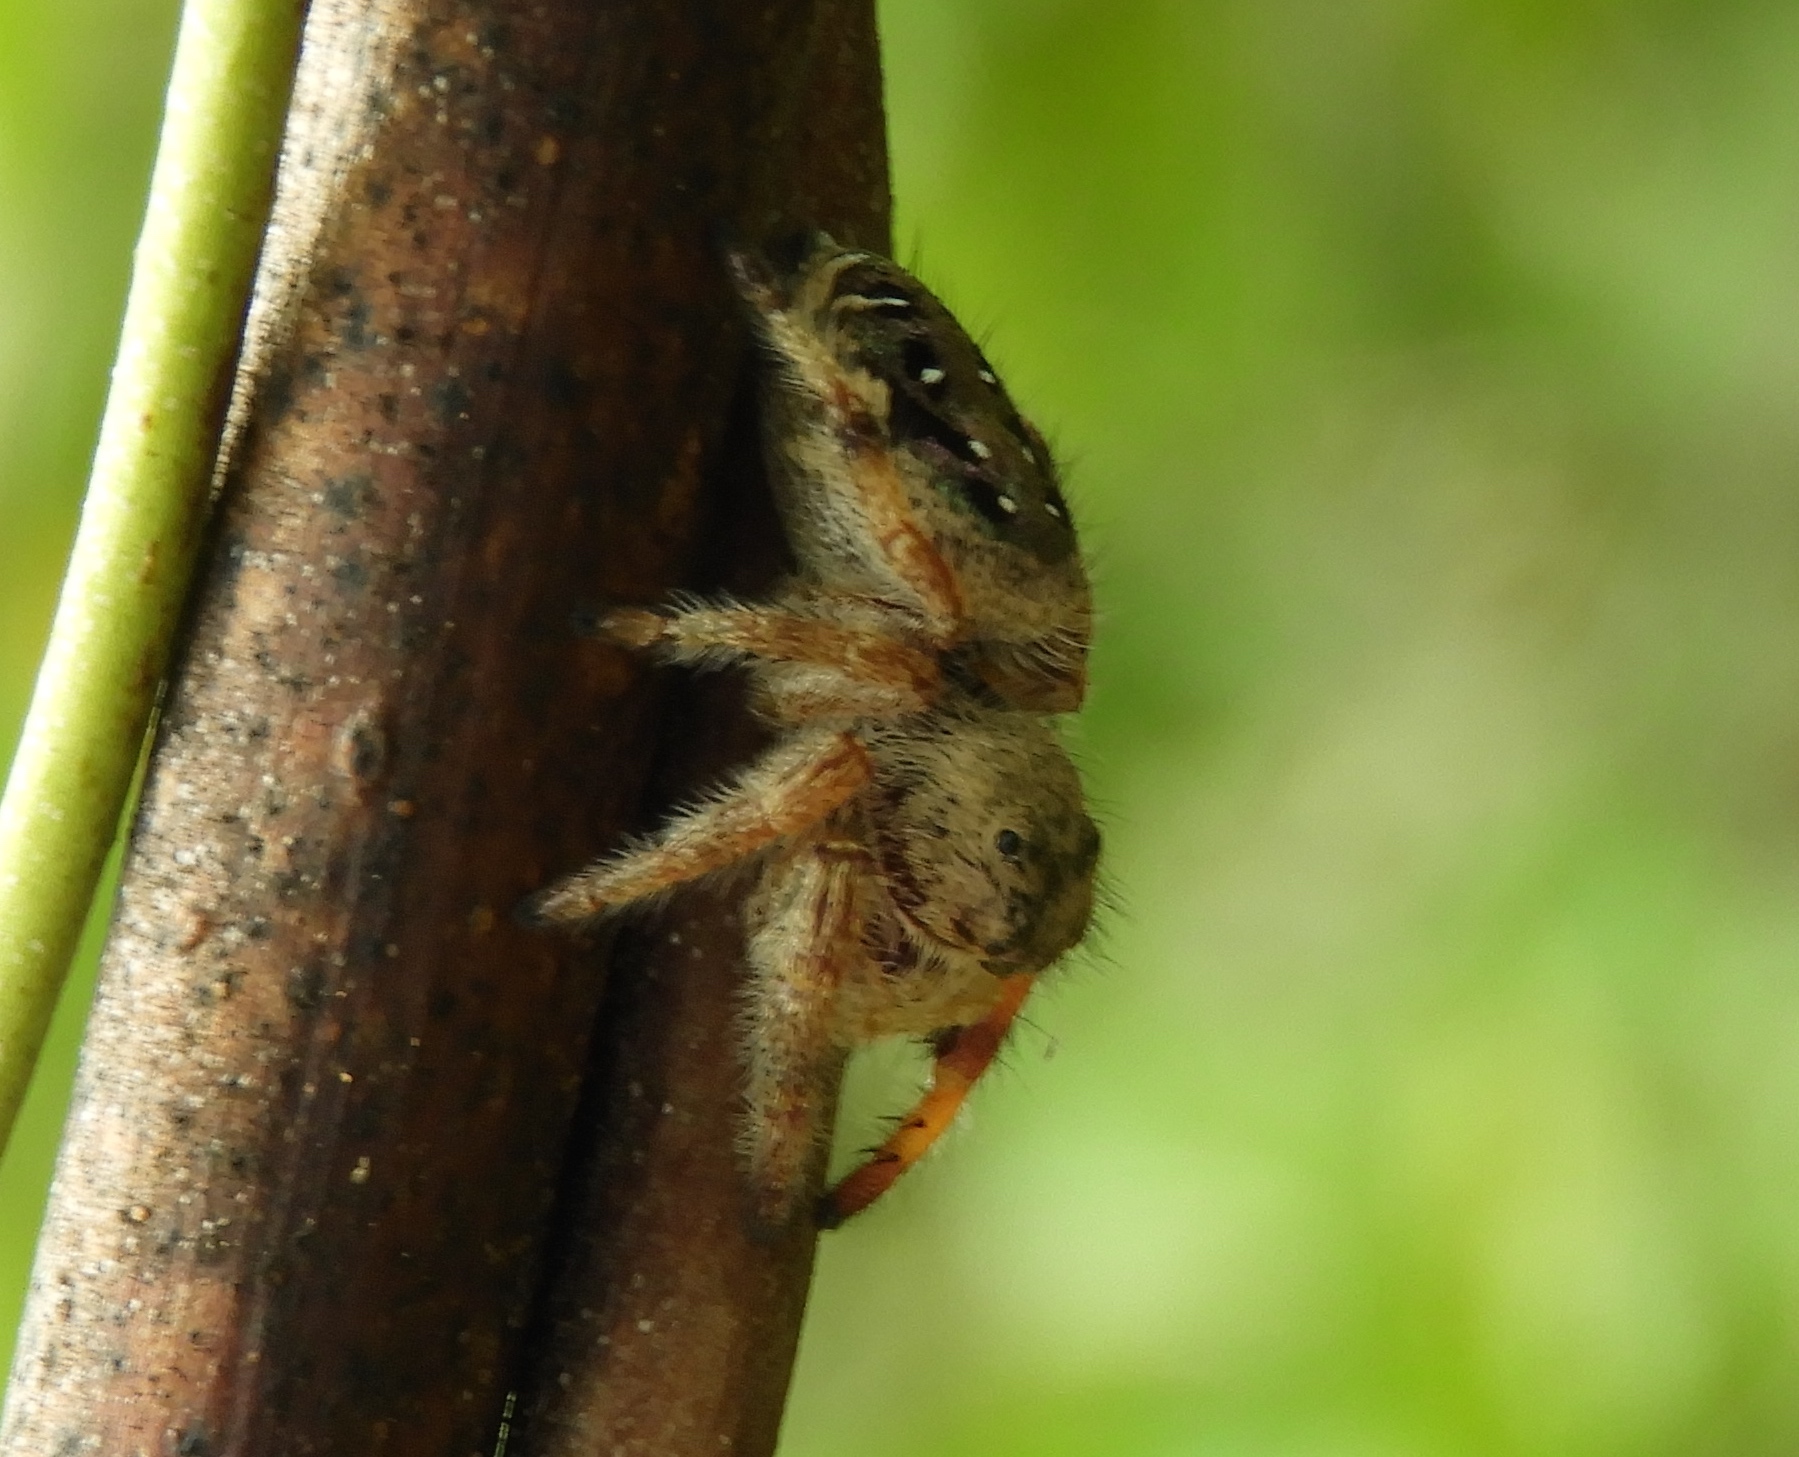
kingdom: Animalia
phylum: Arthropoda
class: Arachnida
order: Araneae
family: Salticidae
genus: Paraphidippus
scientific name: Paraphidippus
